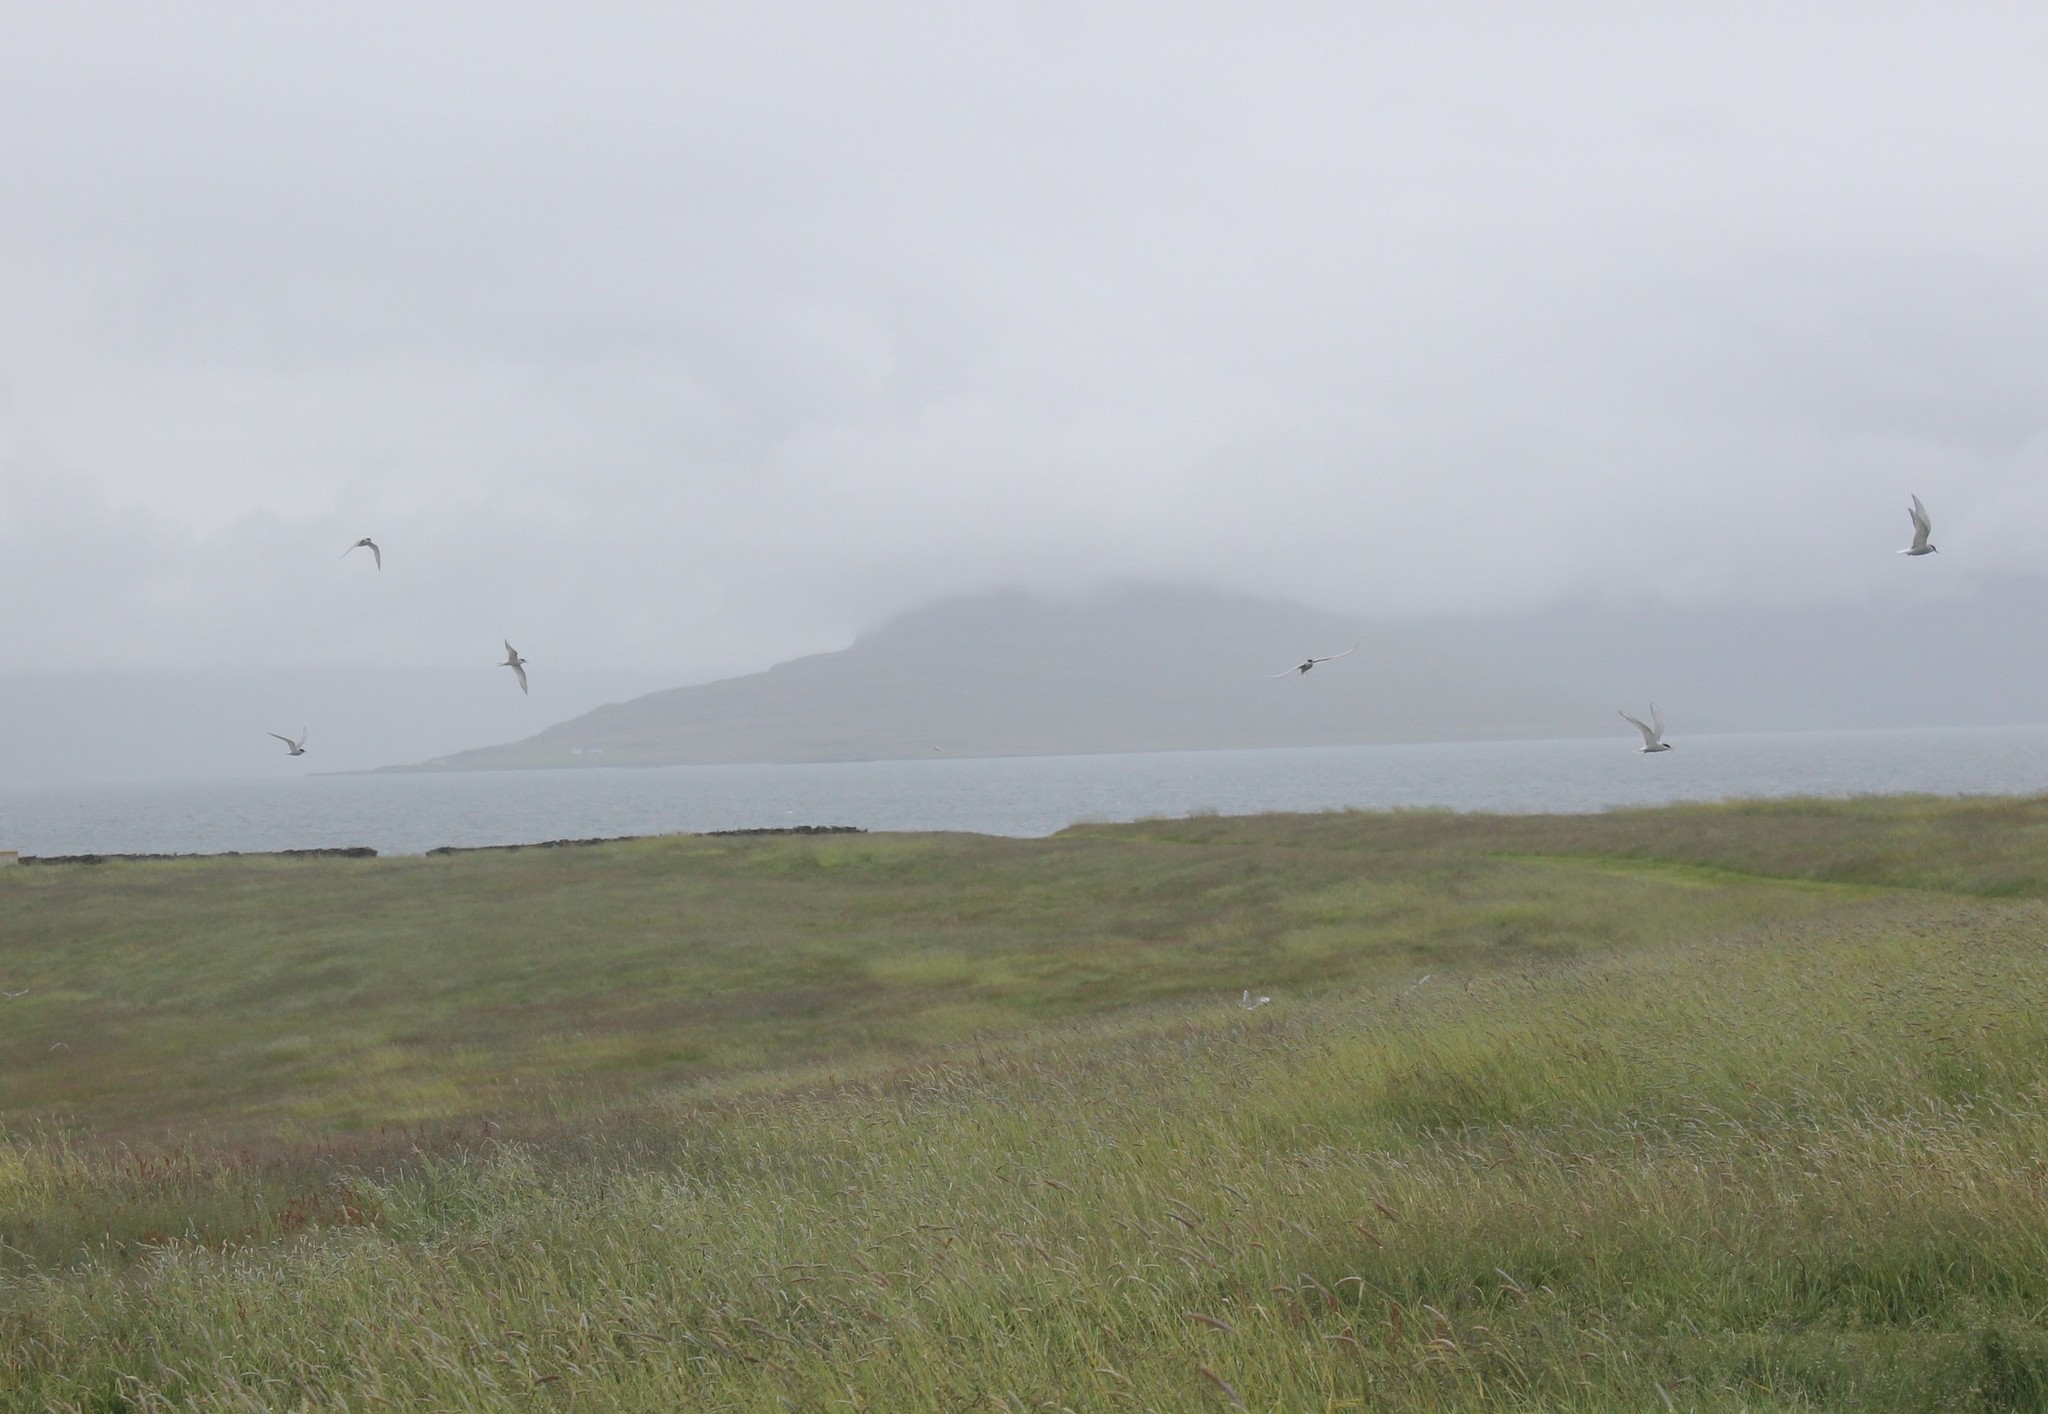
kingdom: Animalia
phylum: Chordata
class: Aves
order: Charadriiformes
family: Laridae
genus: Sterna
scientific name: Sterna paradisaea
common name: Arctic tern
